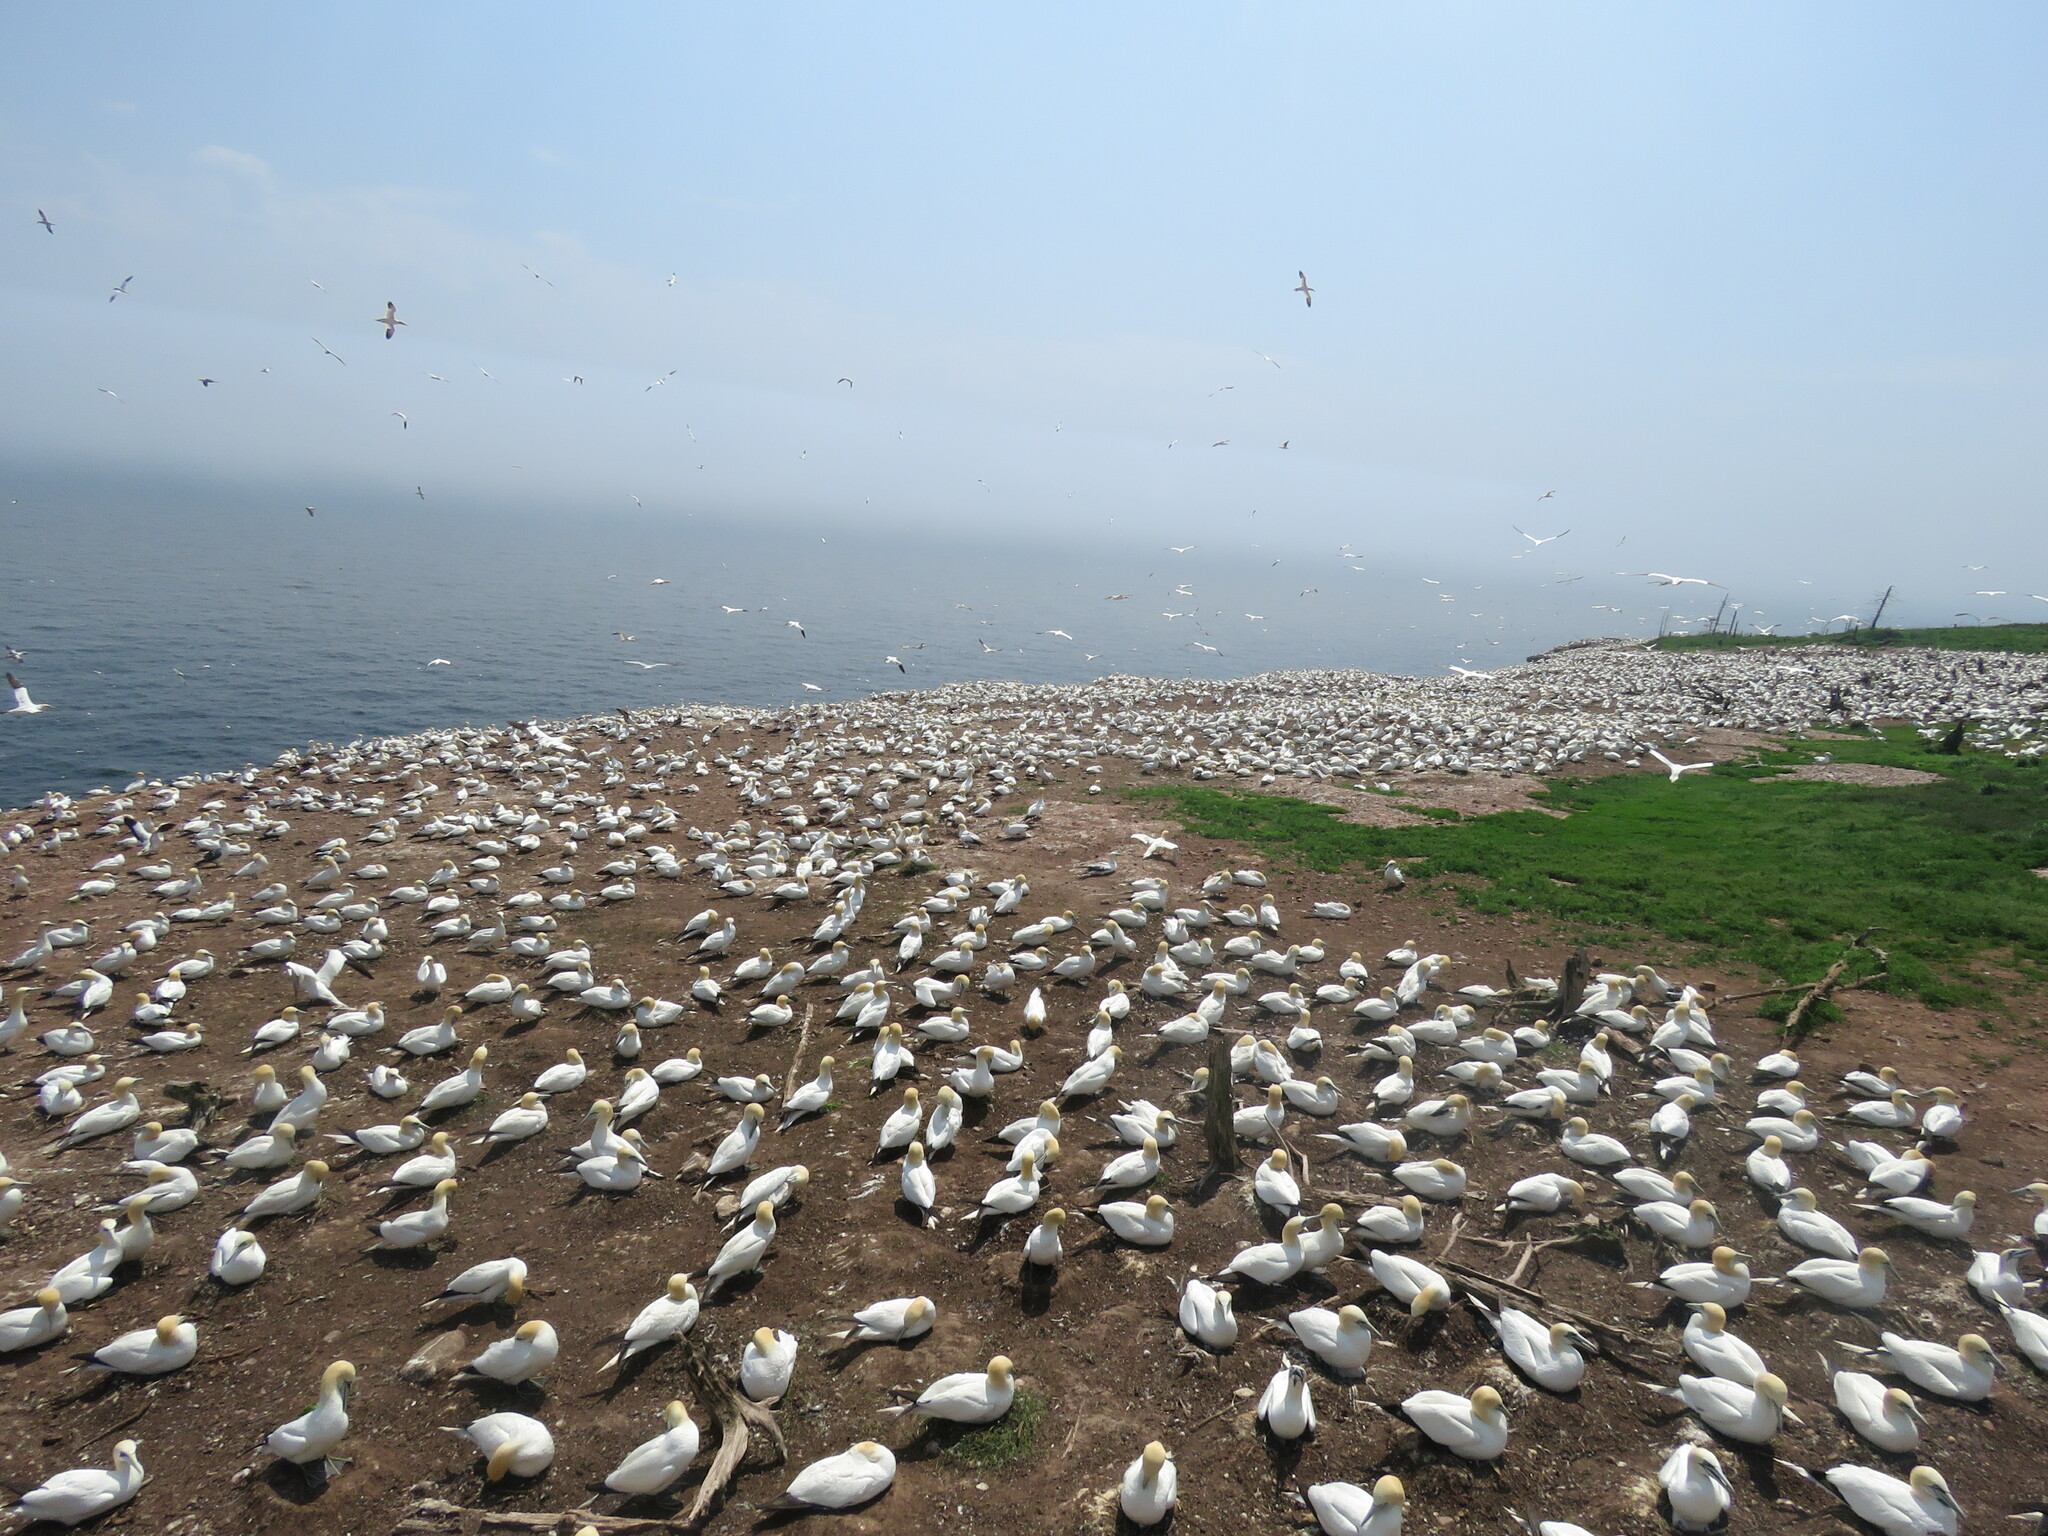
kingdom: Animalia
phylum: Chordata
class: Aves
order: Suliformes
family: Sulidae
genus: Morus
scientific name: Morus bassanus
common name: Northern gannet
